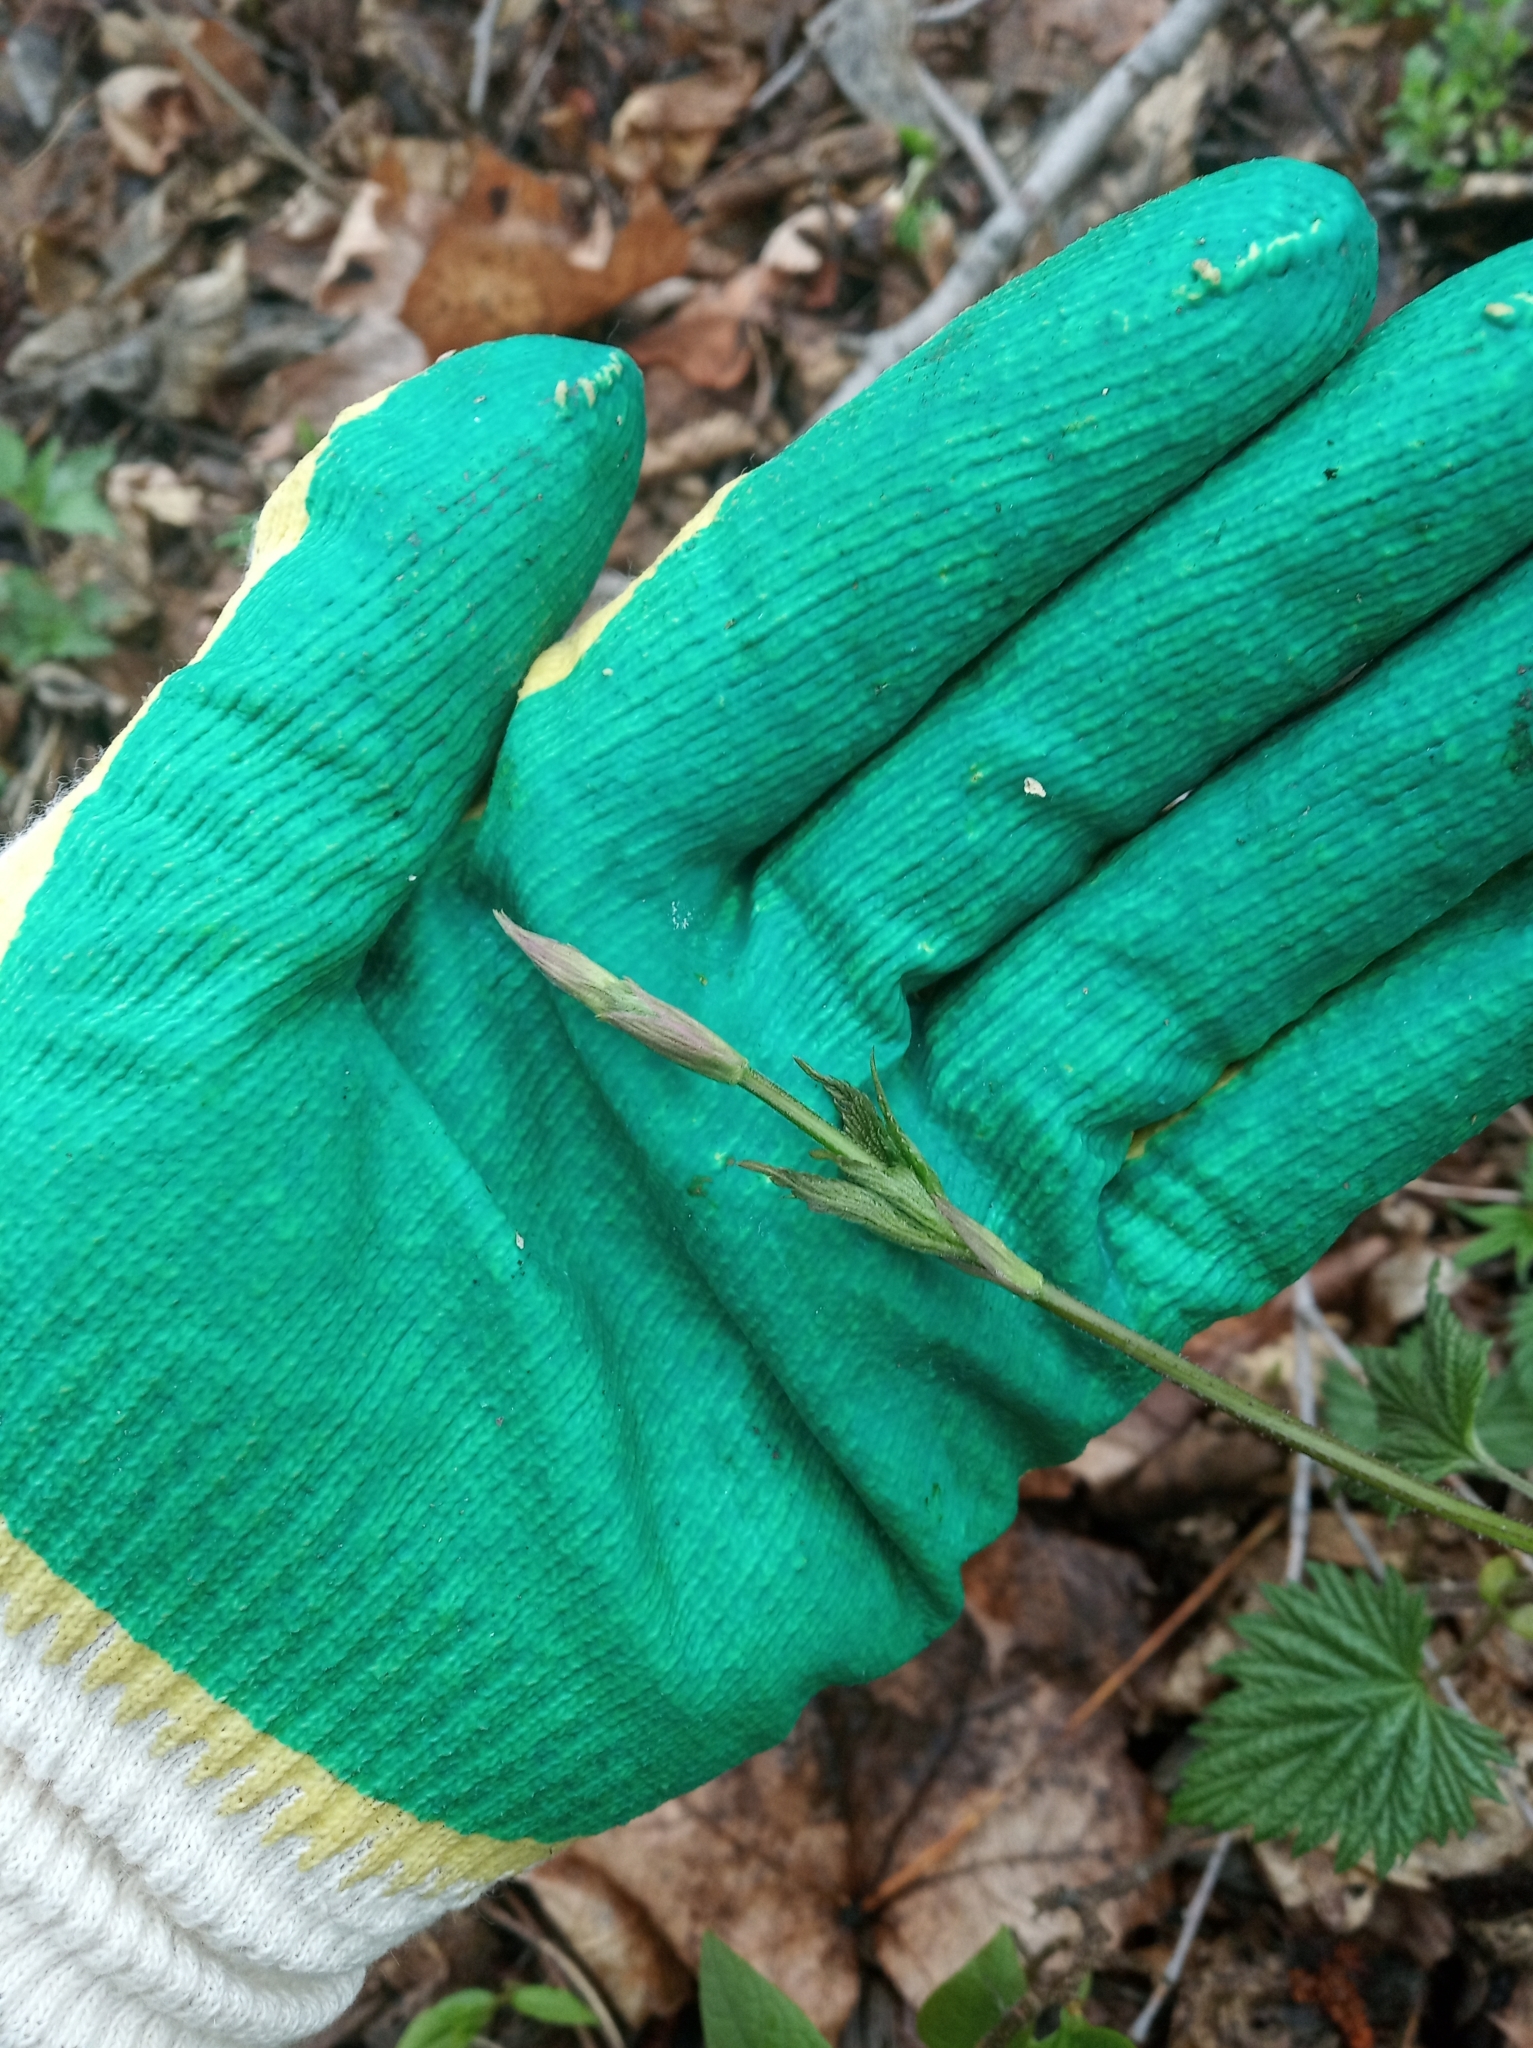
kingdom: Plantae
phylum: Tracheophyta
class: Magnoliopsida
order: Rosales
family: Cannabaceae
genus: Humulus
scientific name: Humulus lupulus
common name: Hop
